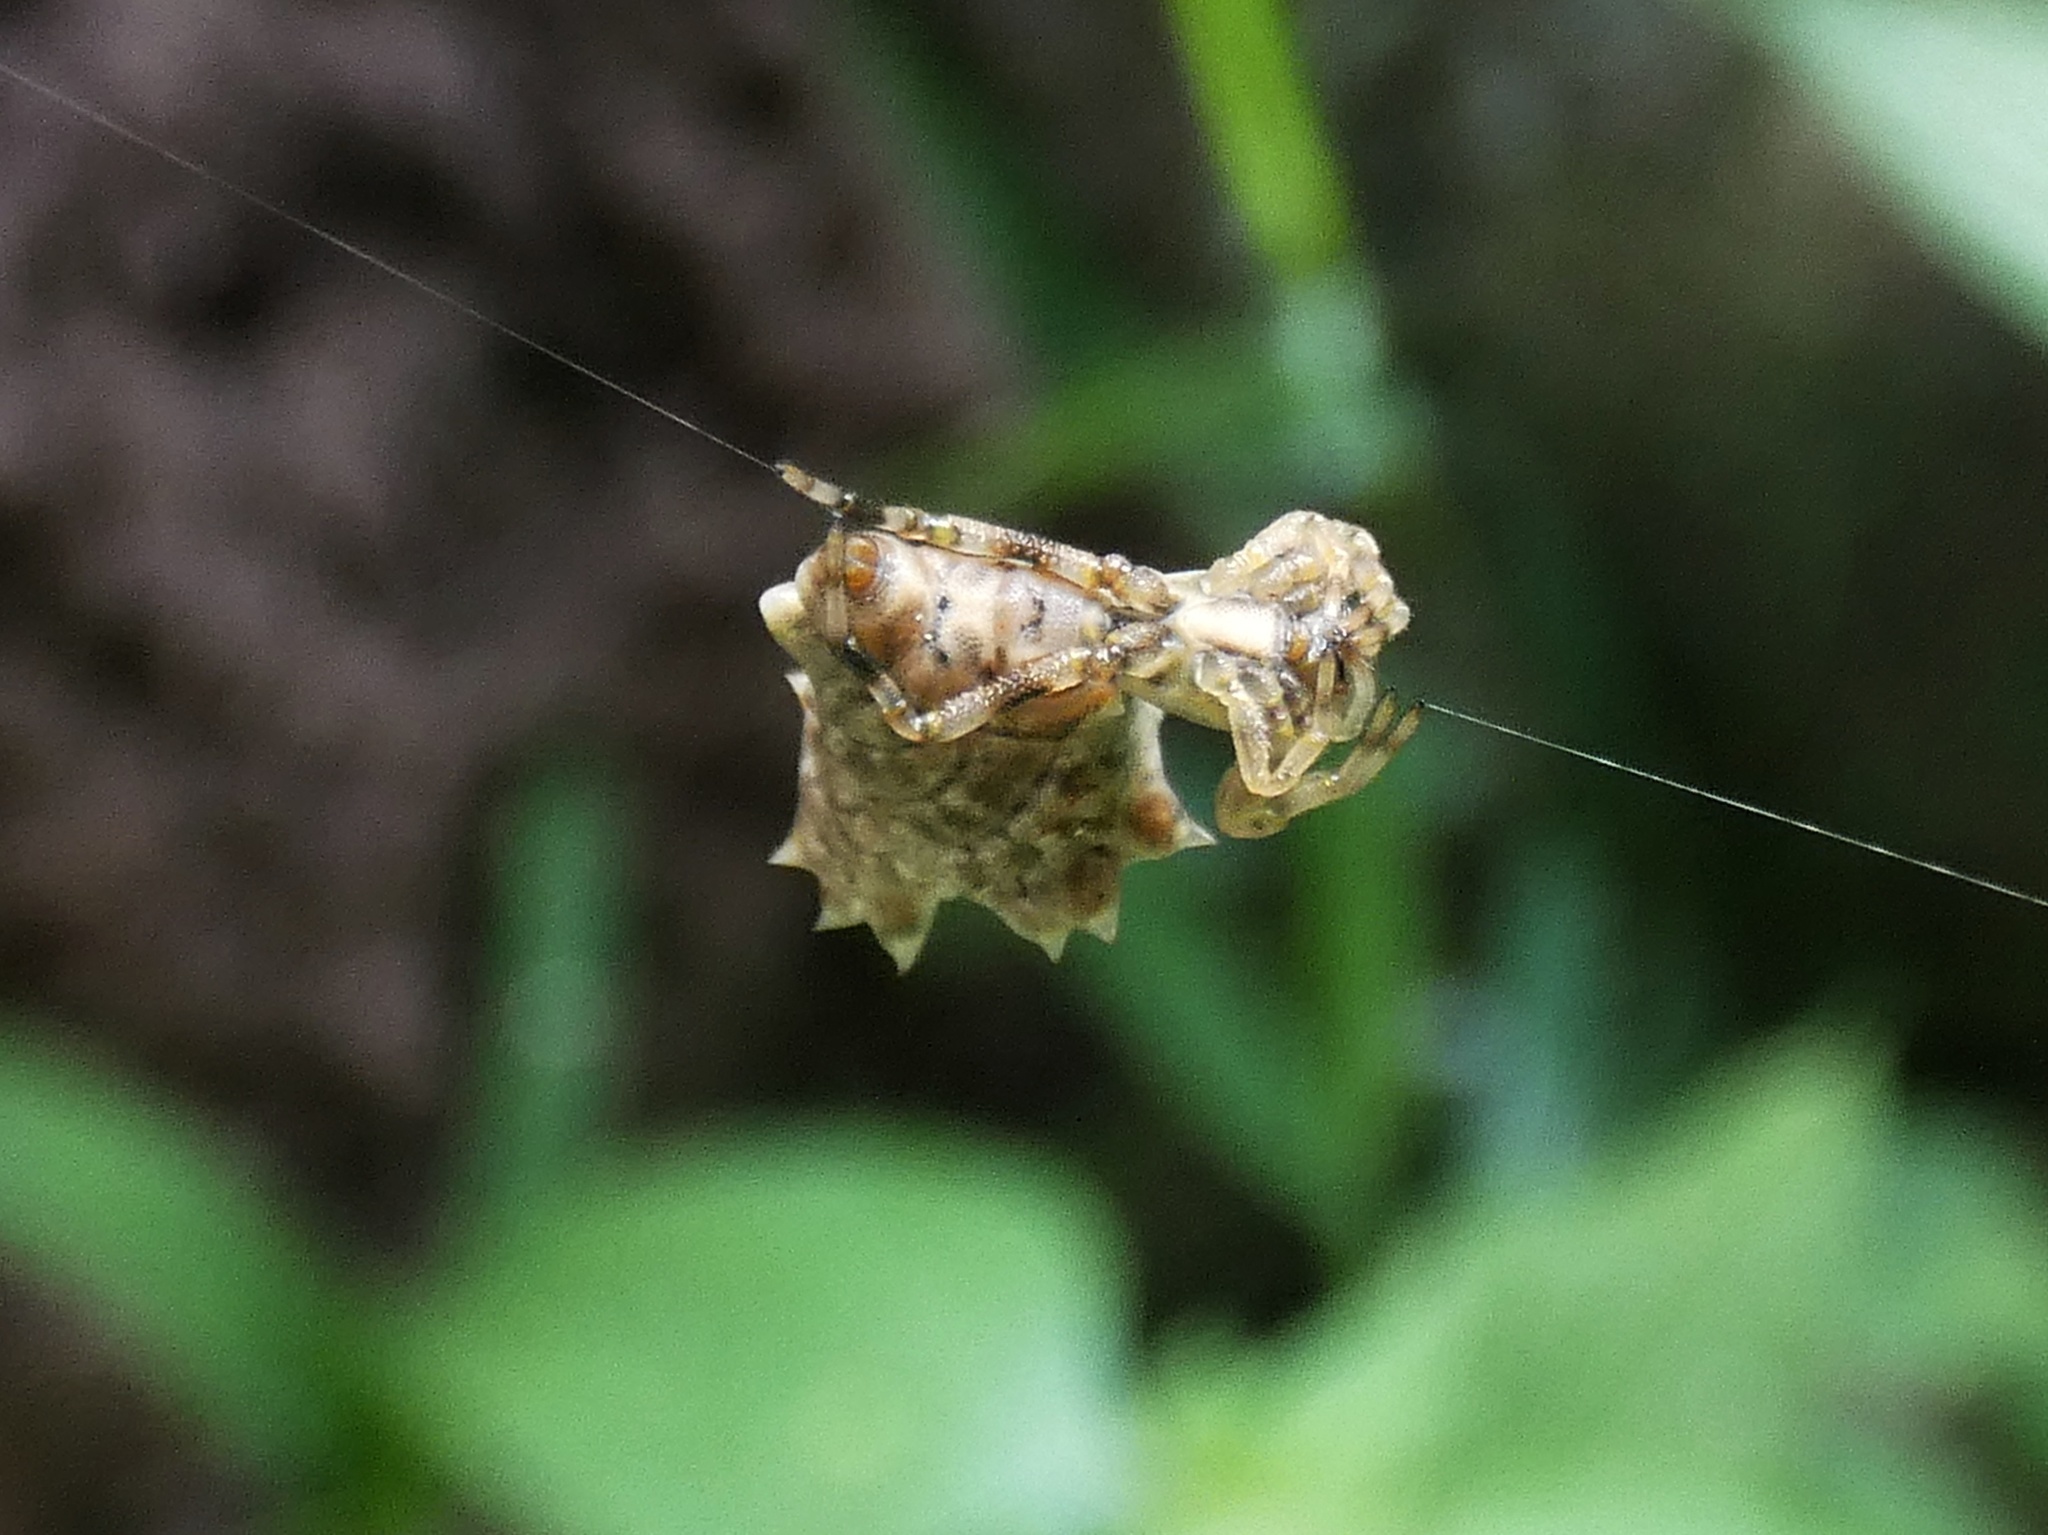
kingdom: Animalia
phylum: Arthropoda
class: Arachnida
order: Araneae
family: Araneidae
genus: Micrathena
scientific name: Micrathena horrida
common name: Orb weavers
